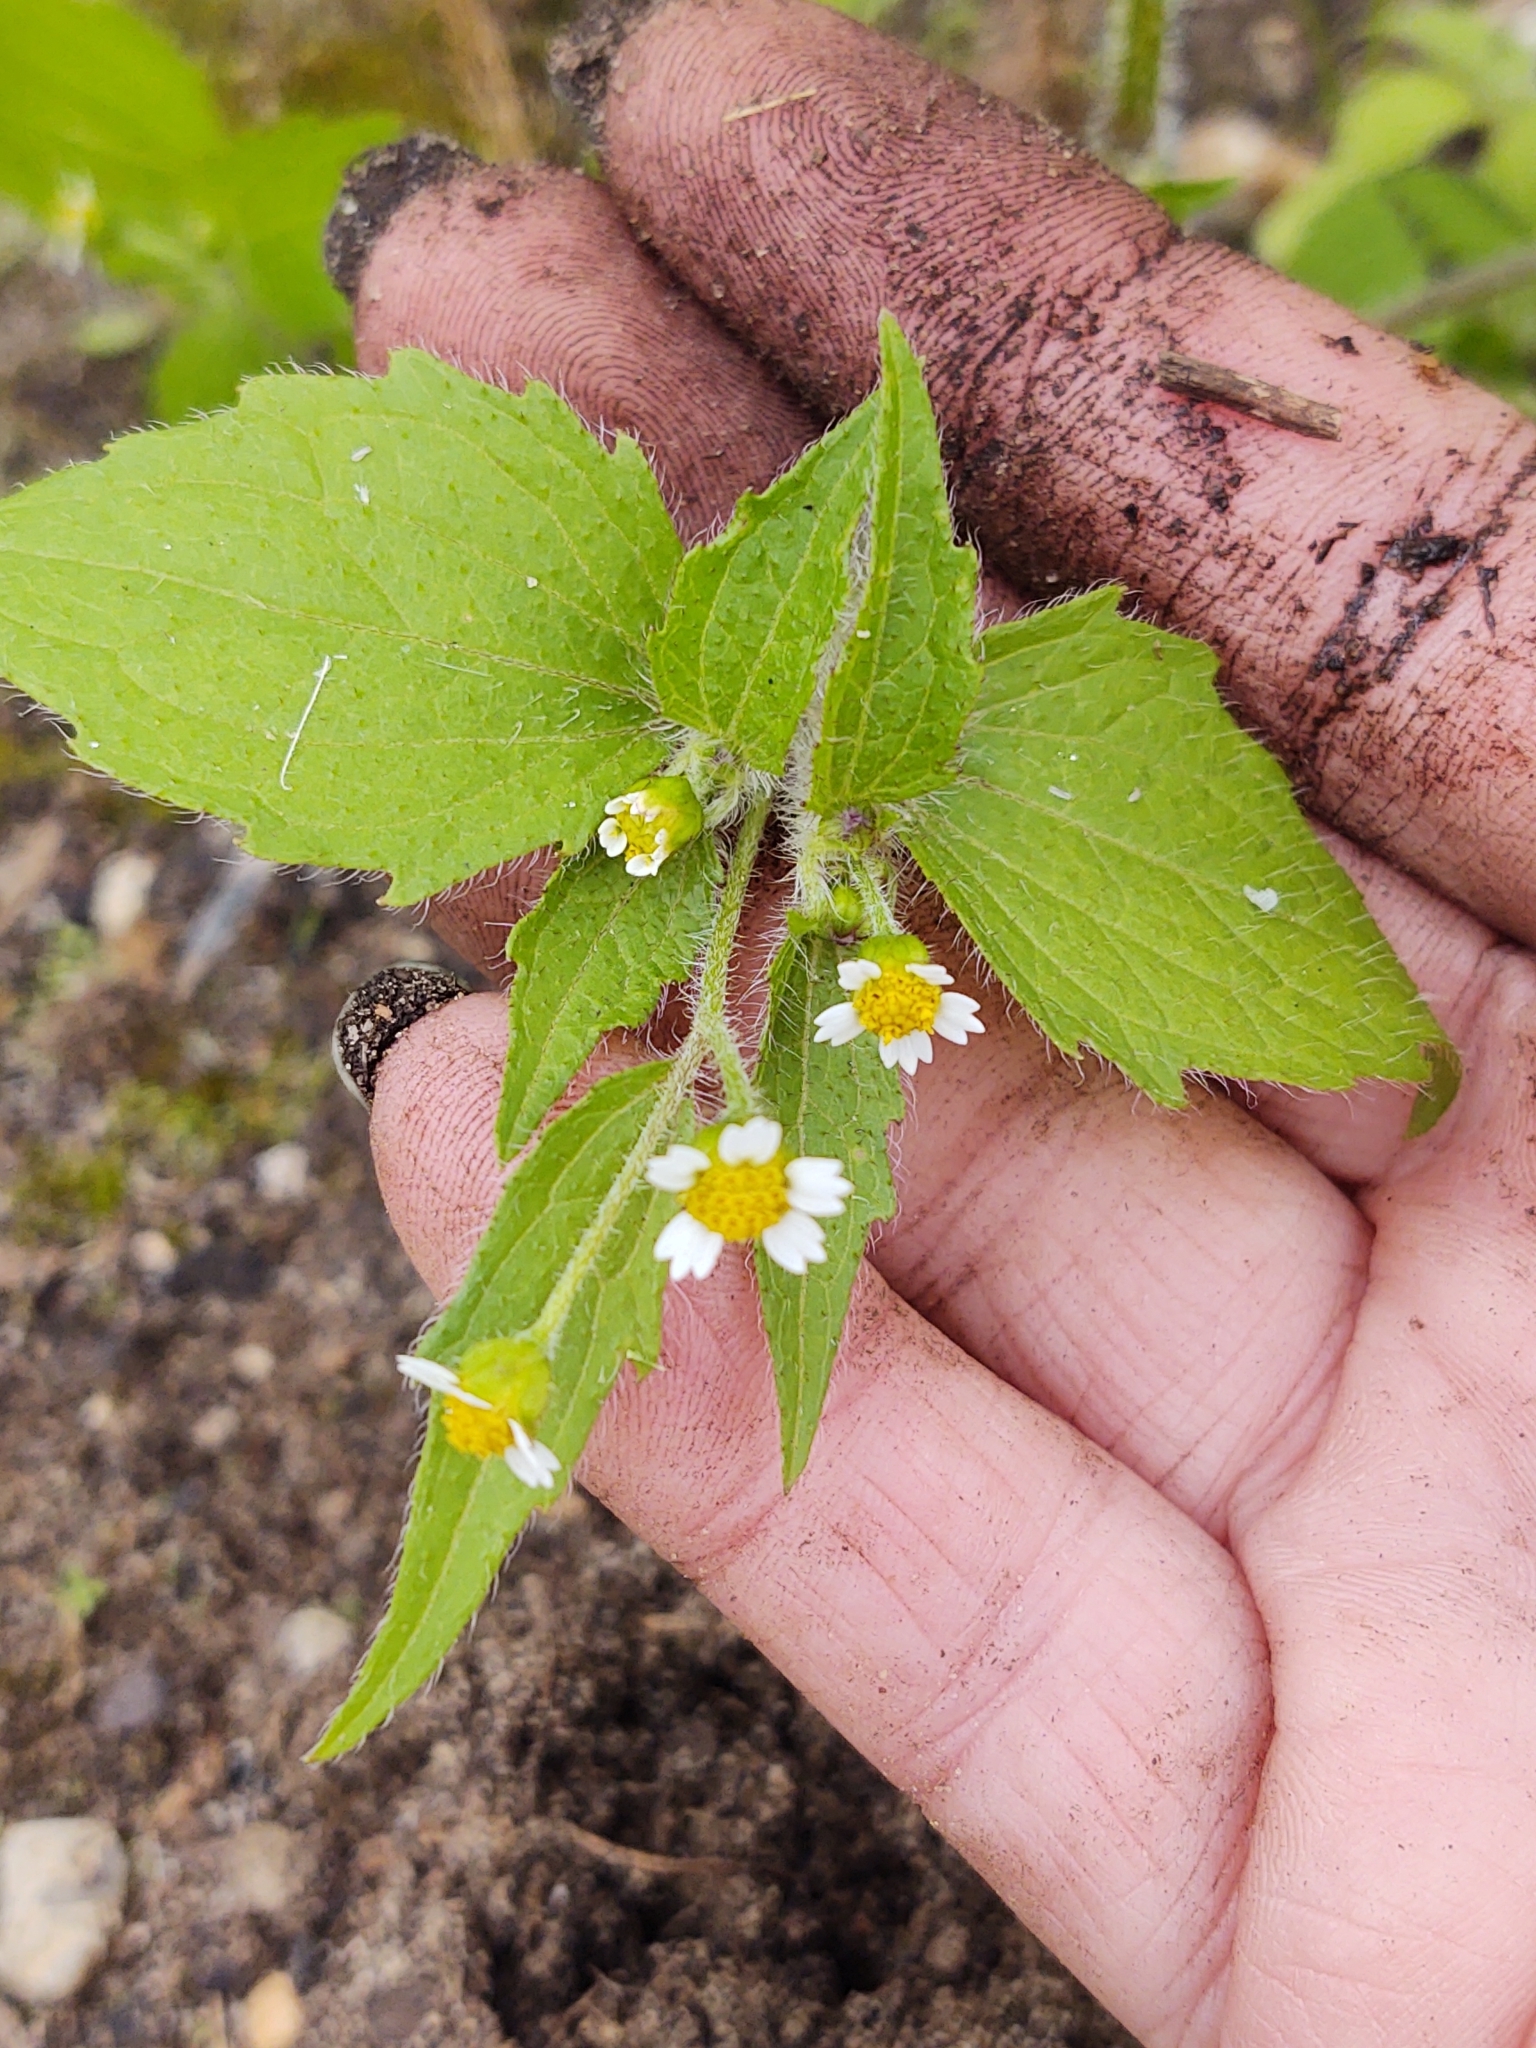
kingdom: Plantae
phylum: Tracheophyta
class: Magnoliopsida
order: Asterales
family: Asteraceae
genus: Galinsoga
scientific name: Galinsoga quadriradiata
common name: Shaggy soldier
